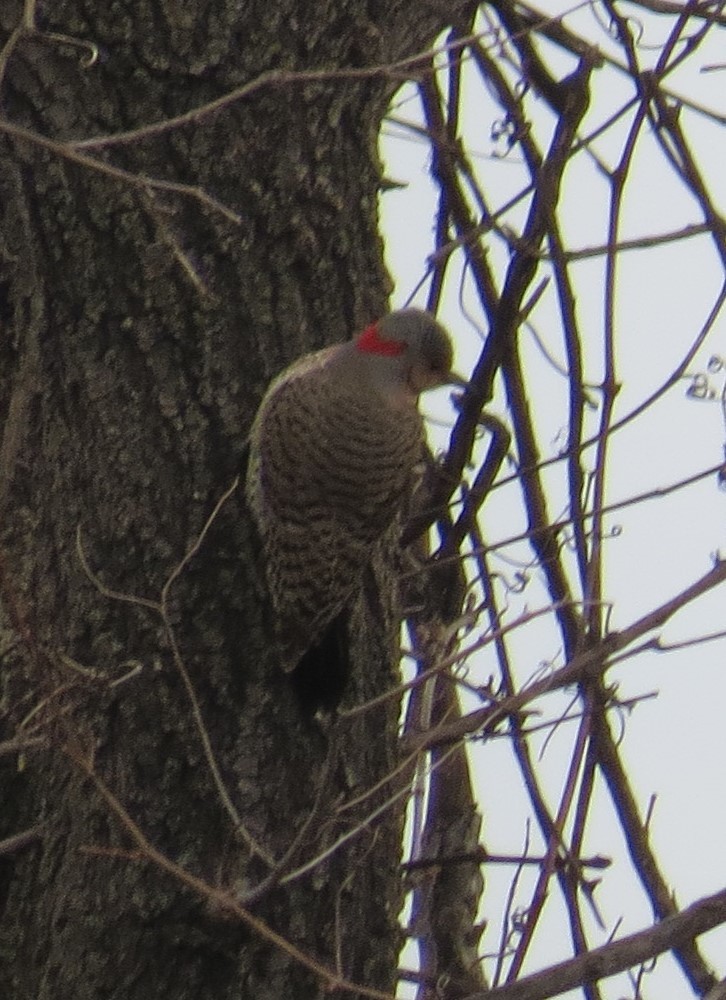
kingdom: Animalia
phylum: Chordata
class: Aves
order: Piciformes
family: Picidae
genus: Colaptes
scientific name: Colaptes auratus
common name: Northern flicker
